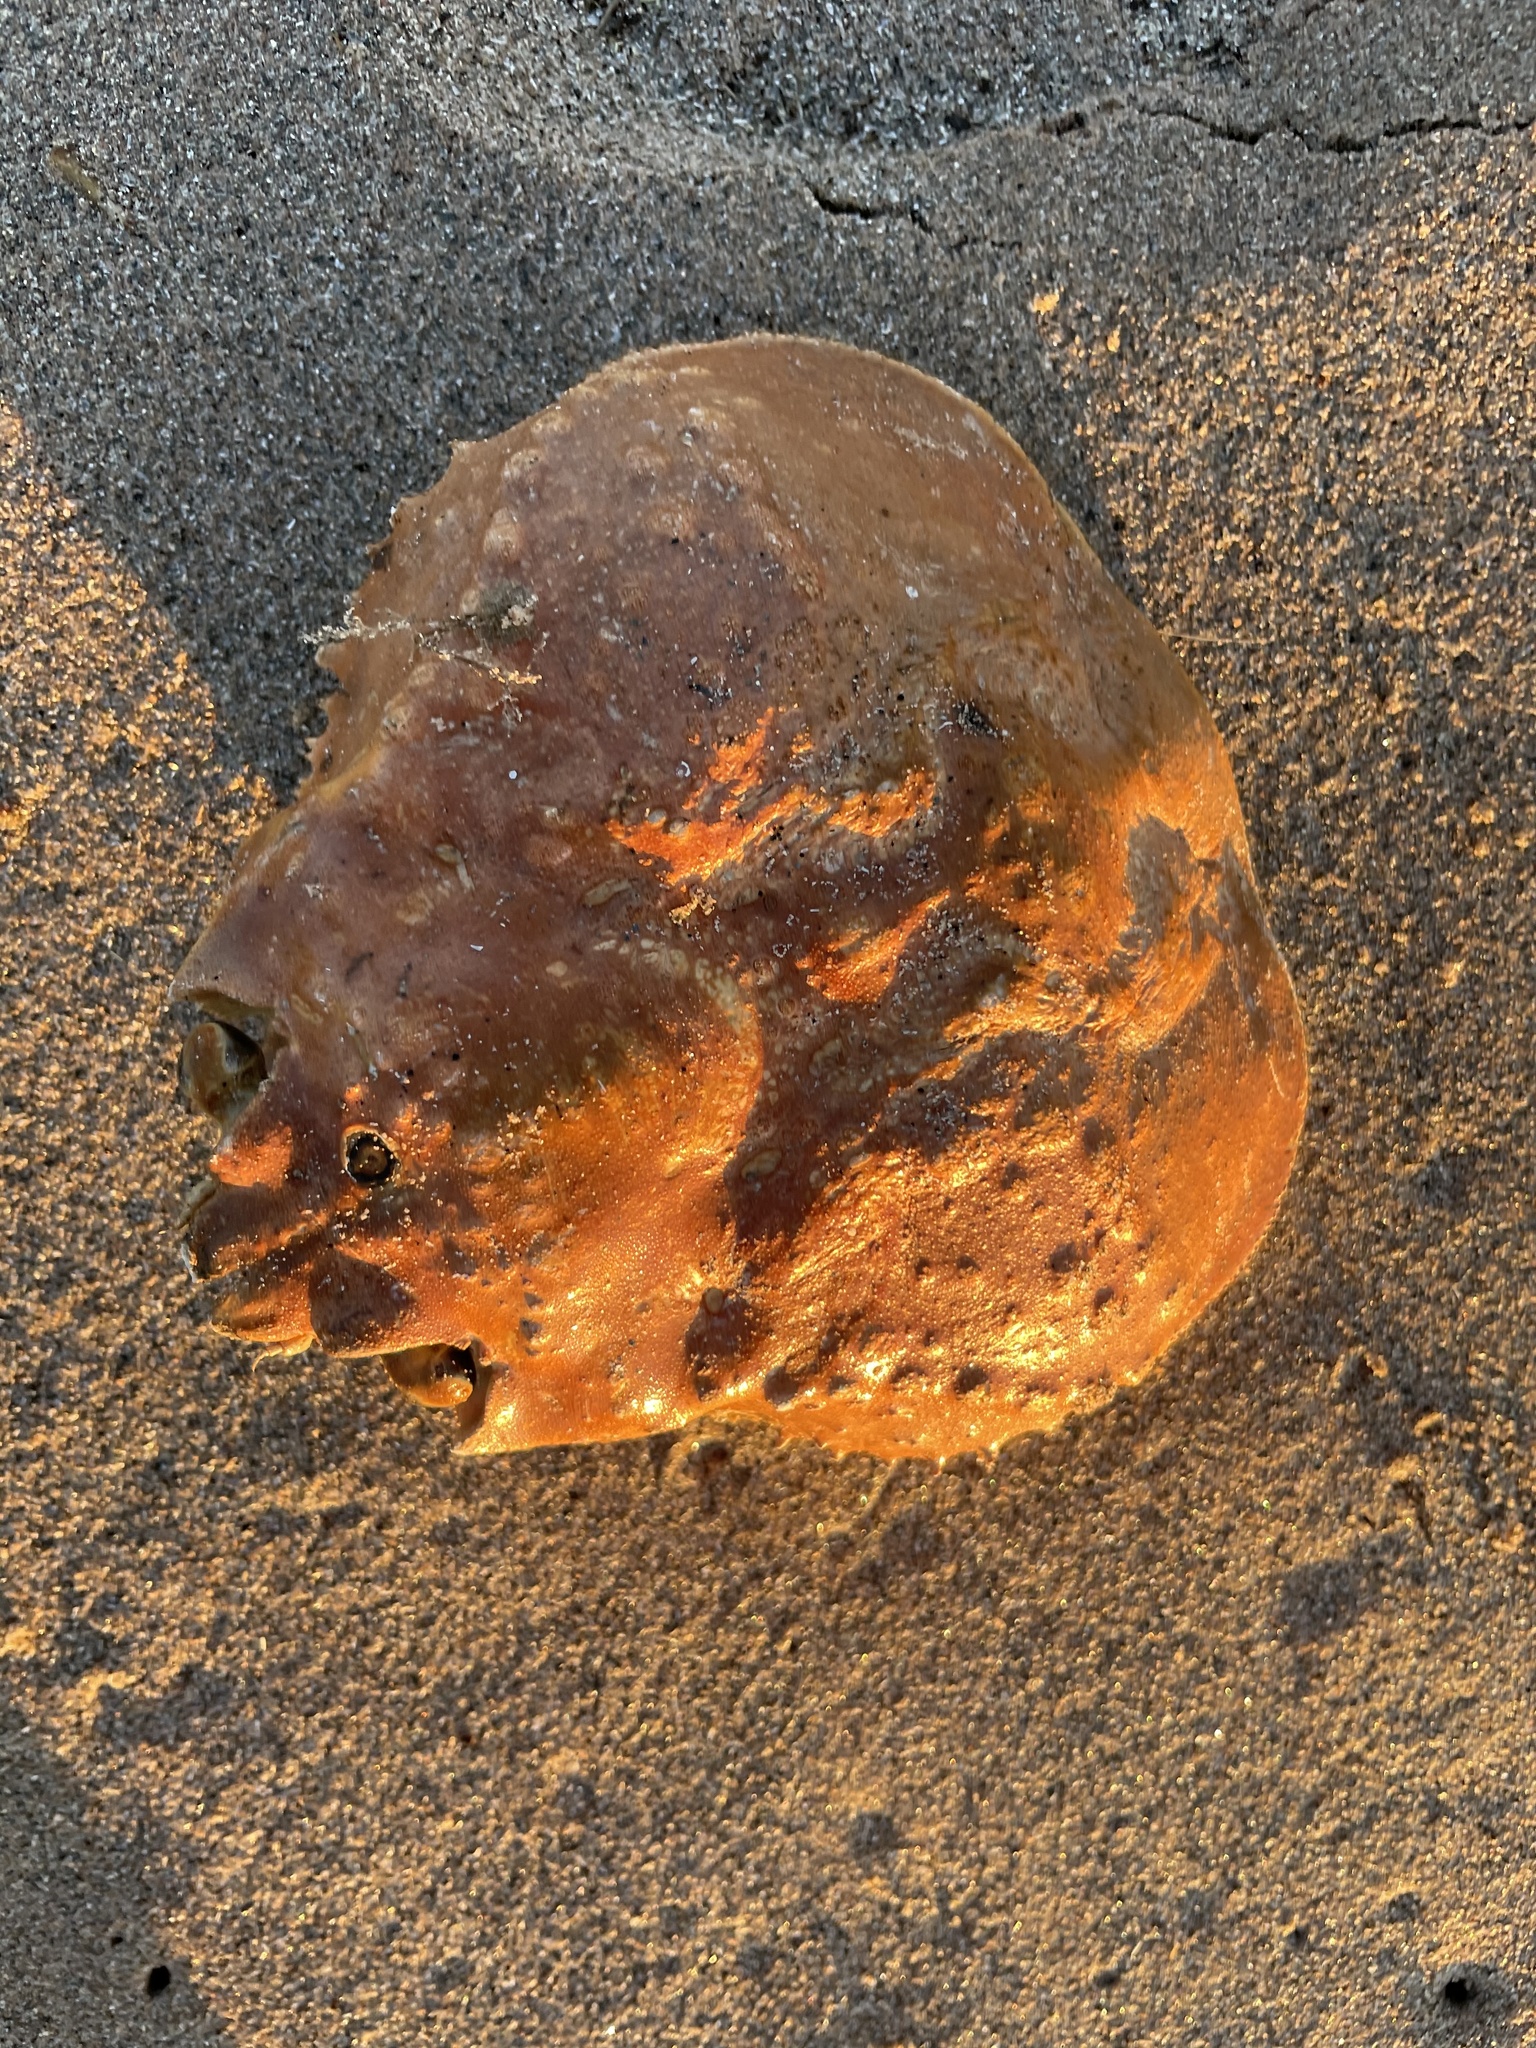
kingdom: Animalia
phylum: Arthropoda
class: Malacostraca
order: Decapoda
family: Oregoniidae
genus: Chionoecetes
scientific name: Chionoecetes opilio
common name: Atlantic snow crab
